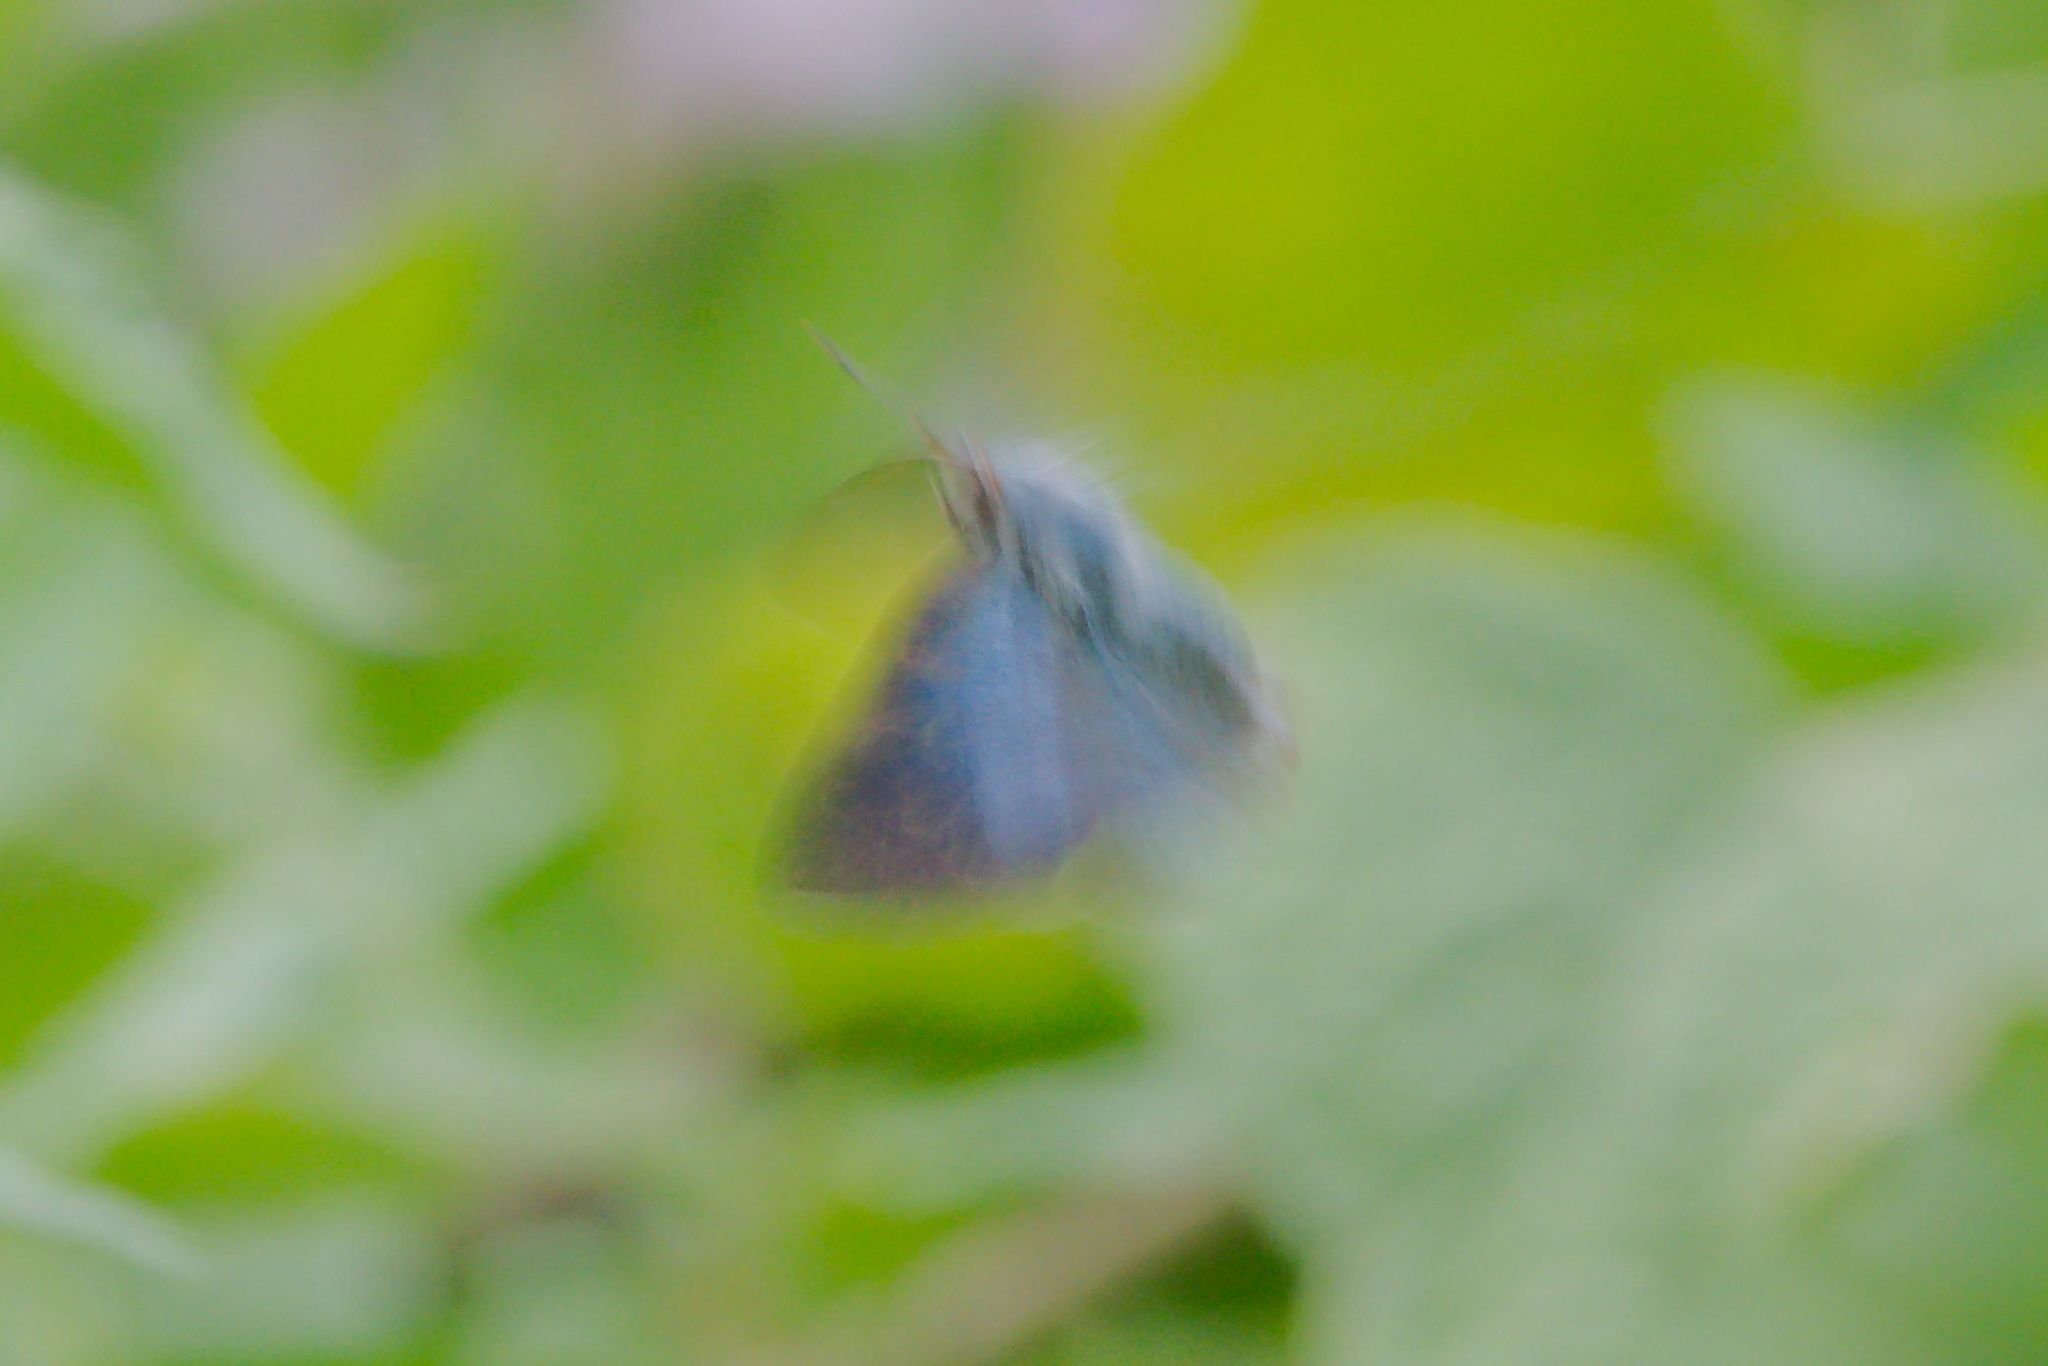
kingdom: Animalia
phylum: Arthropoda
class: Insecta
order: Lepidoptera
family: Lycaenidae
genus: Thecla
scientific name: Thecla goodsoni
